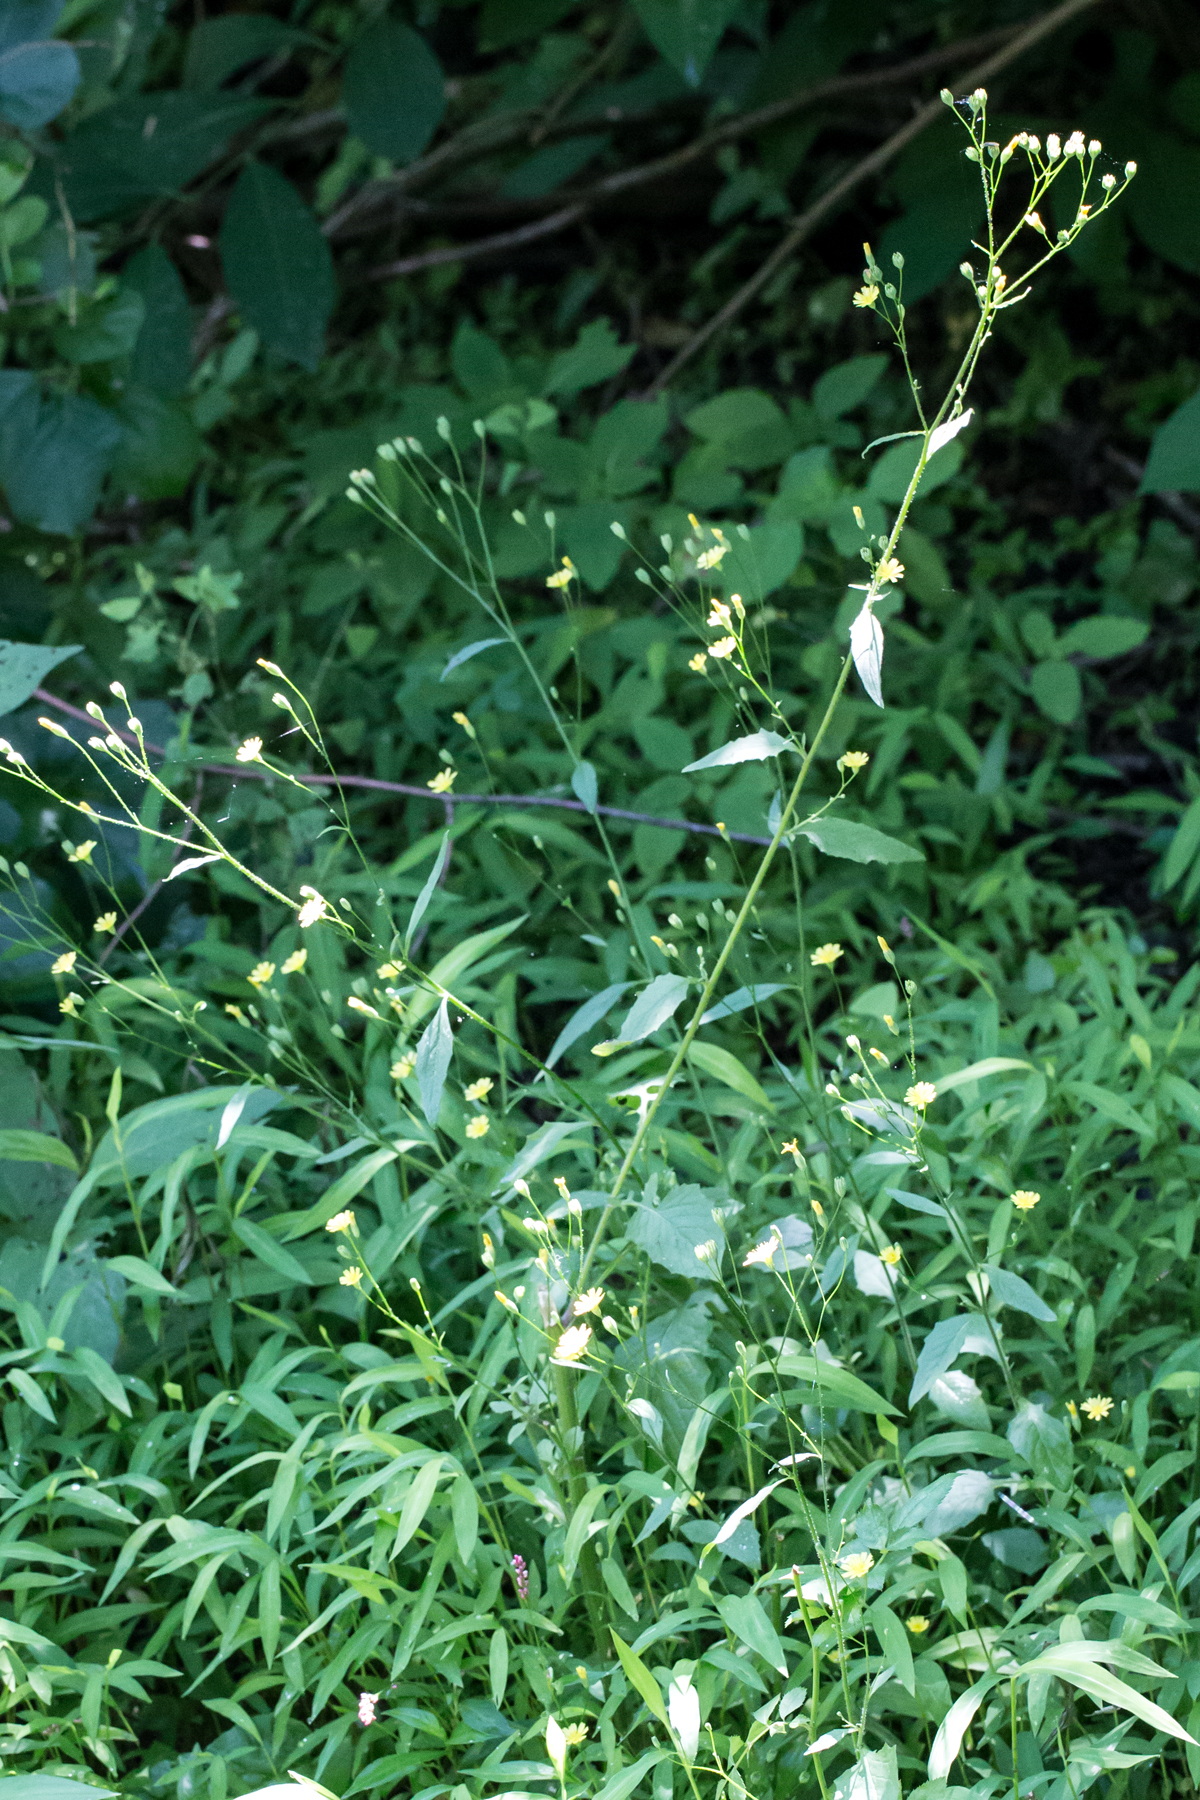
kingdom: Plantae
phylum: Tracheophyta
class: Magnoliopsida
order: Asterales
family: Asteraceae
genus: Lapsana
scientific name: Lapsana communis
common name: Nipplewort
